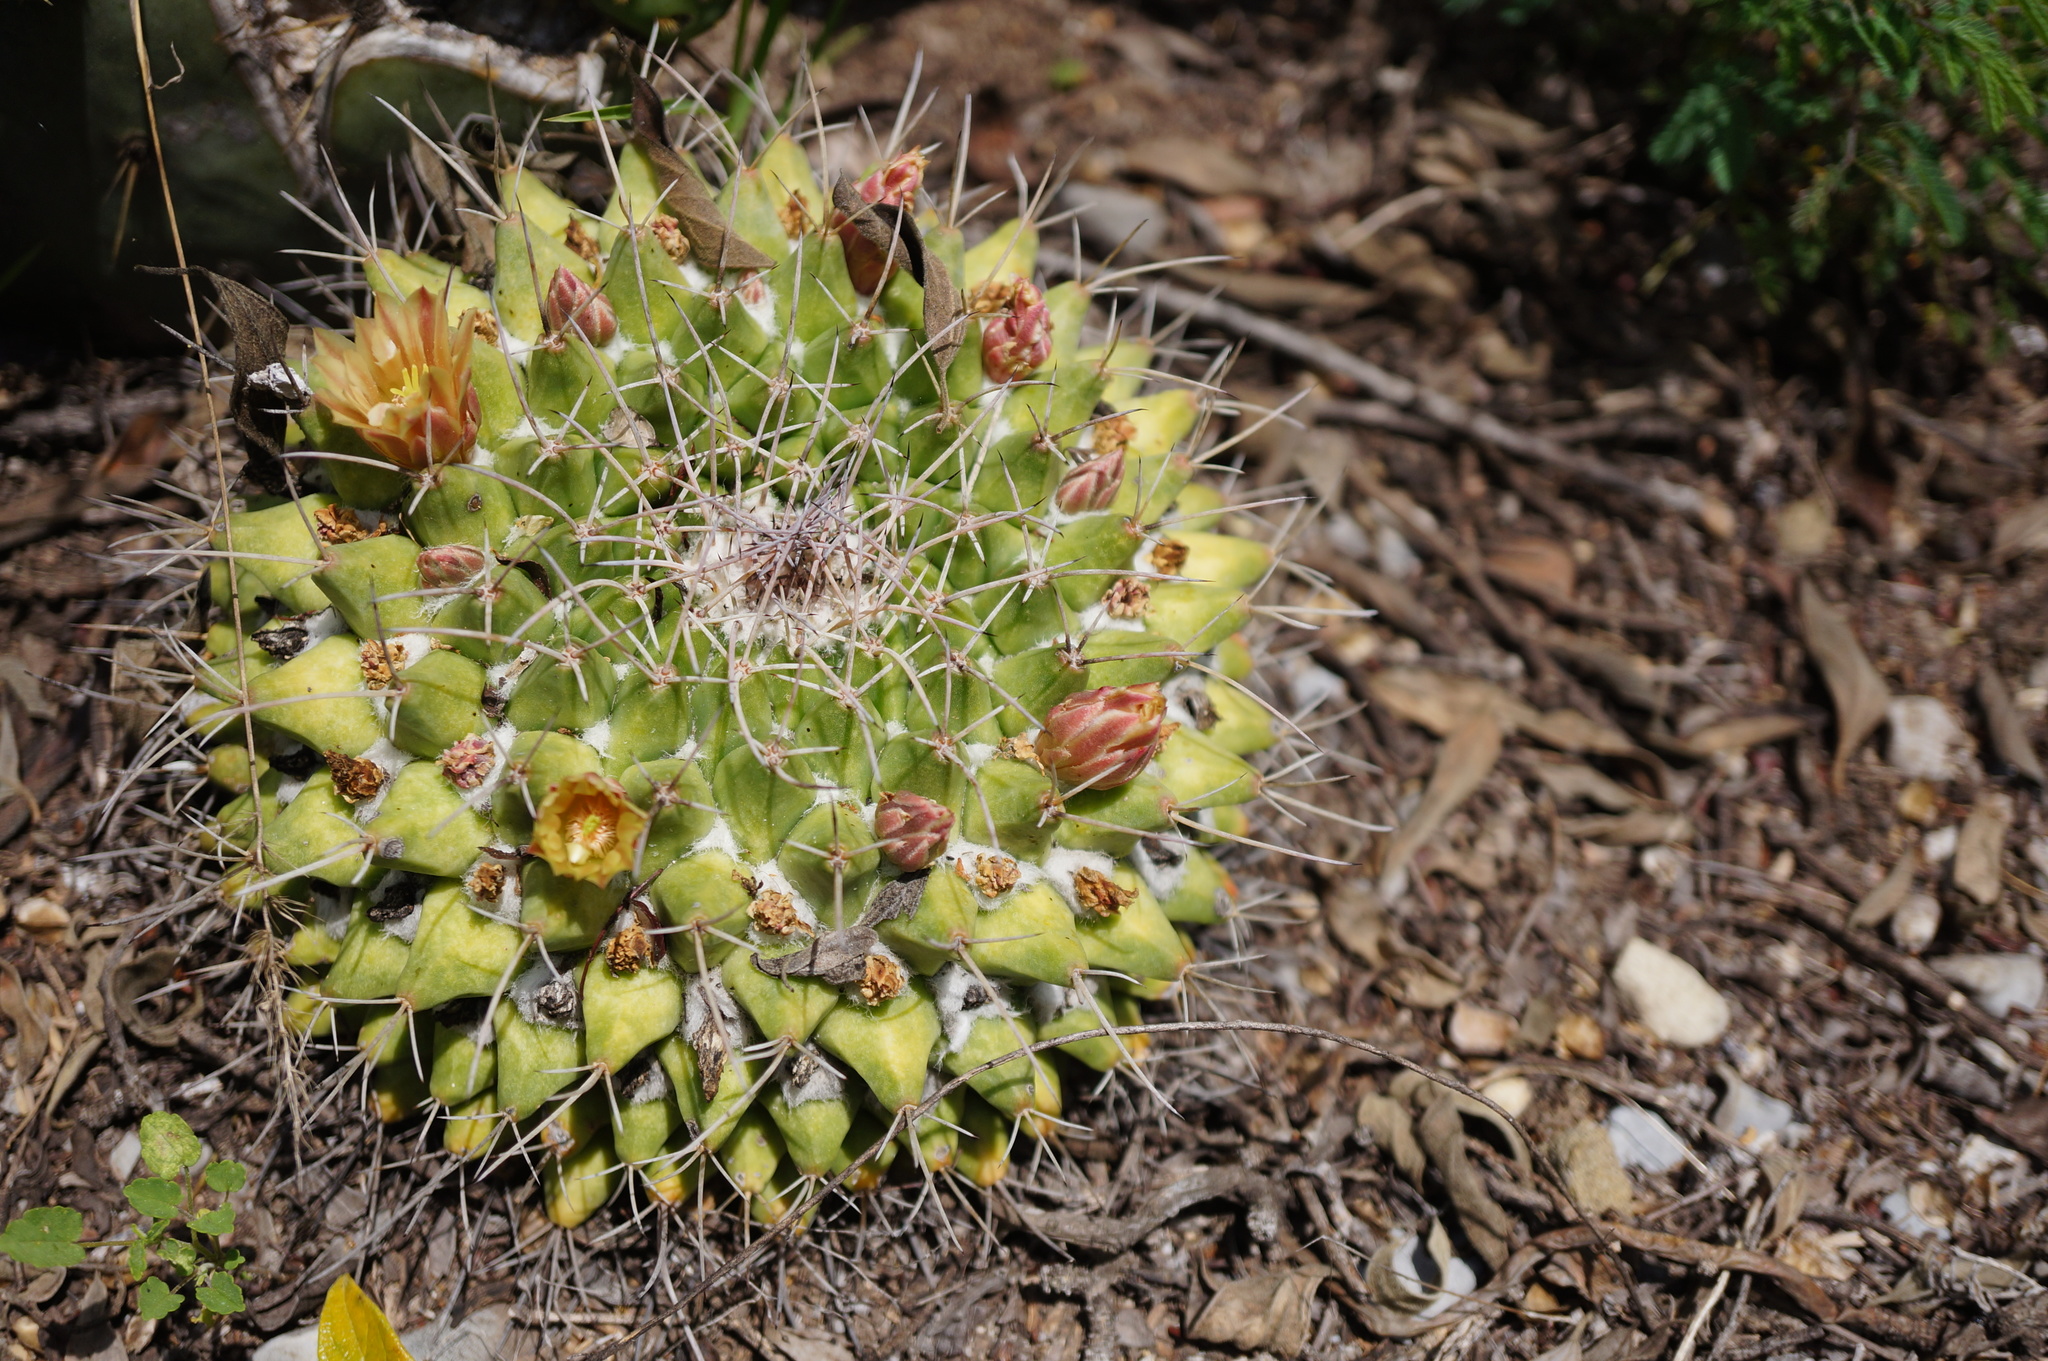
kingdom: Plantae
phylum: Tracheophyta
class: Magnoliopsida
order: Caryophyllales
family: Cactaceae
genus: Mammillaria
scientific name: Mammillaria winterae
